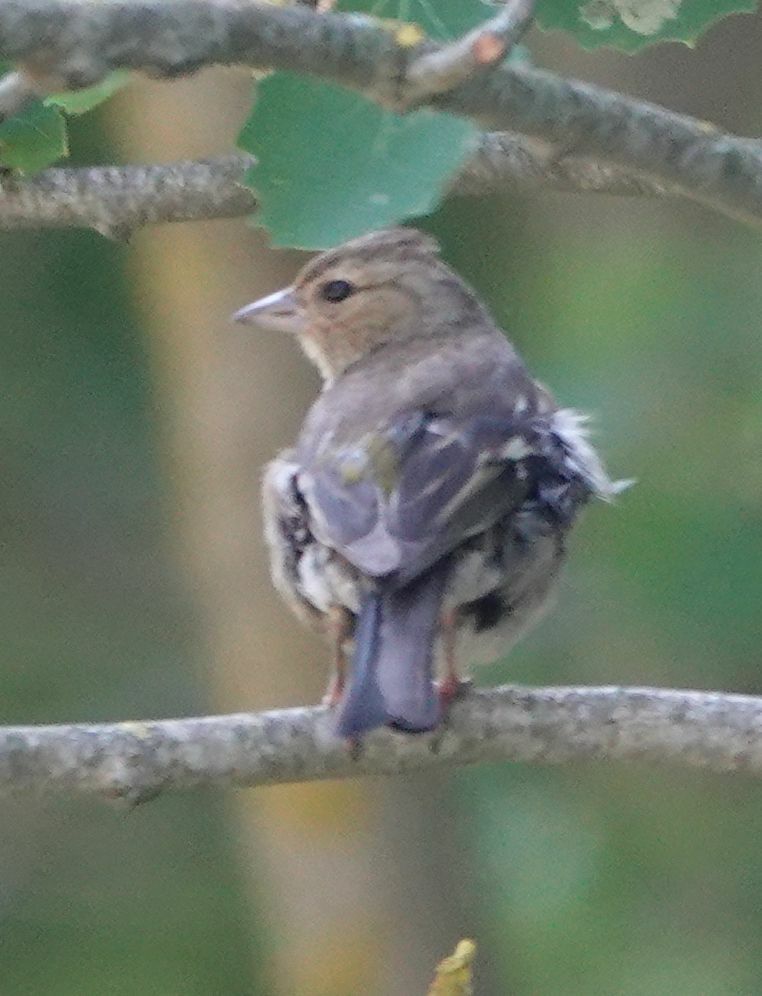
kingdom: Animalia
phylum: Chordata
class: Aves
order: Passeriformes
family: Fringillidae
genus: Fringilla
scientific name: Fringilla coelebs
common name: Common chaffinch
